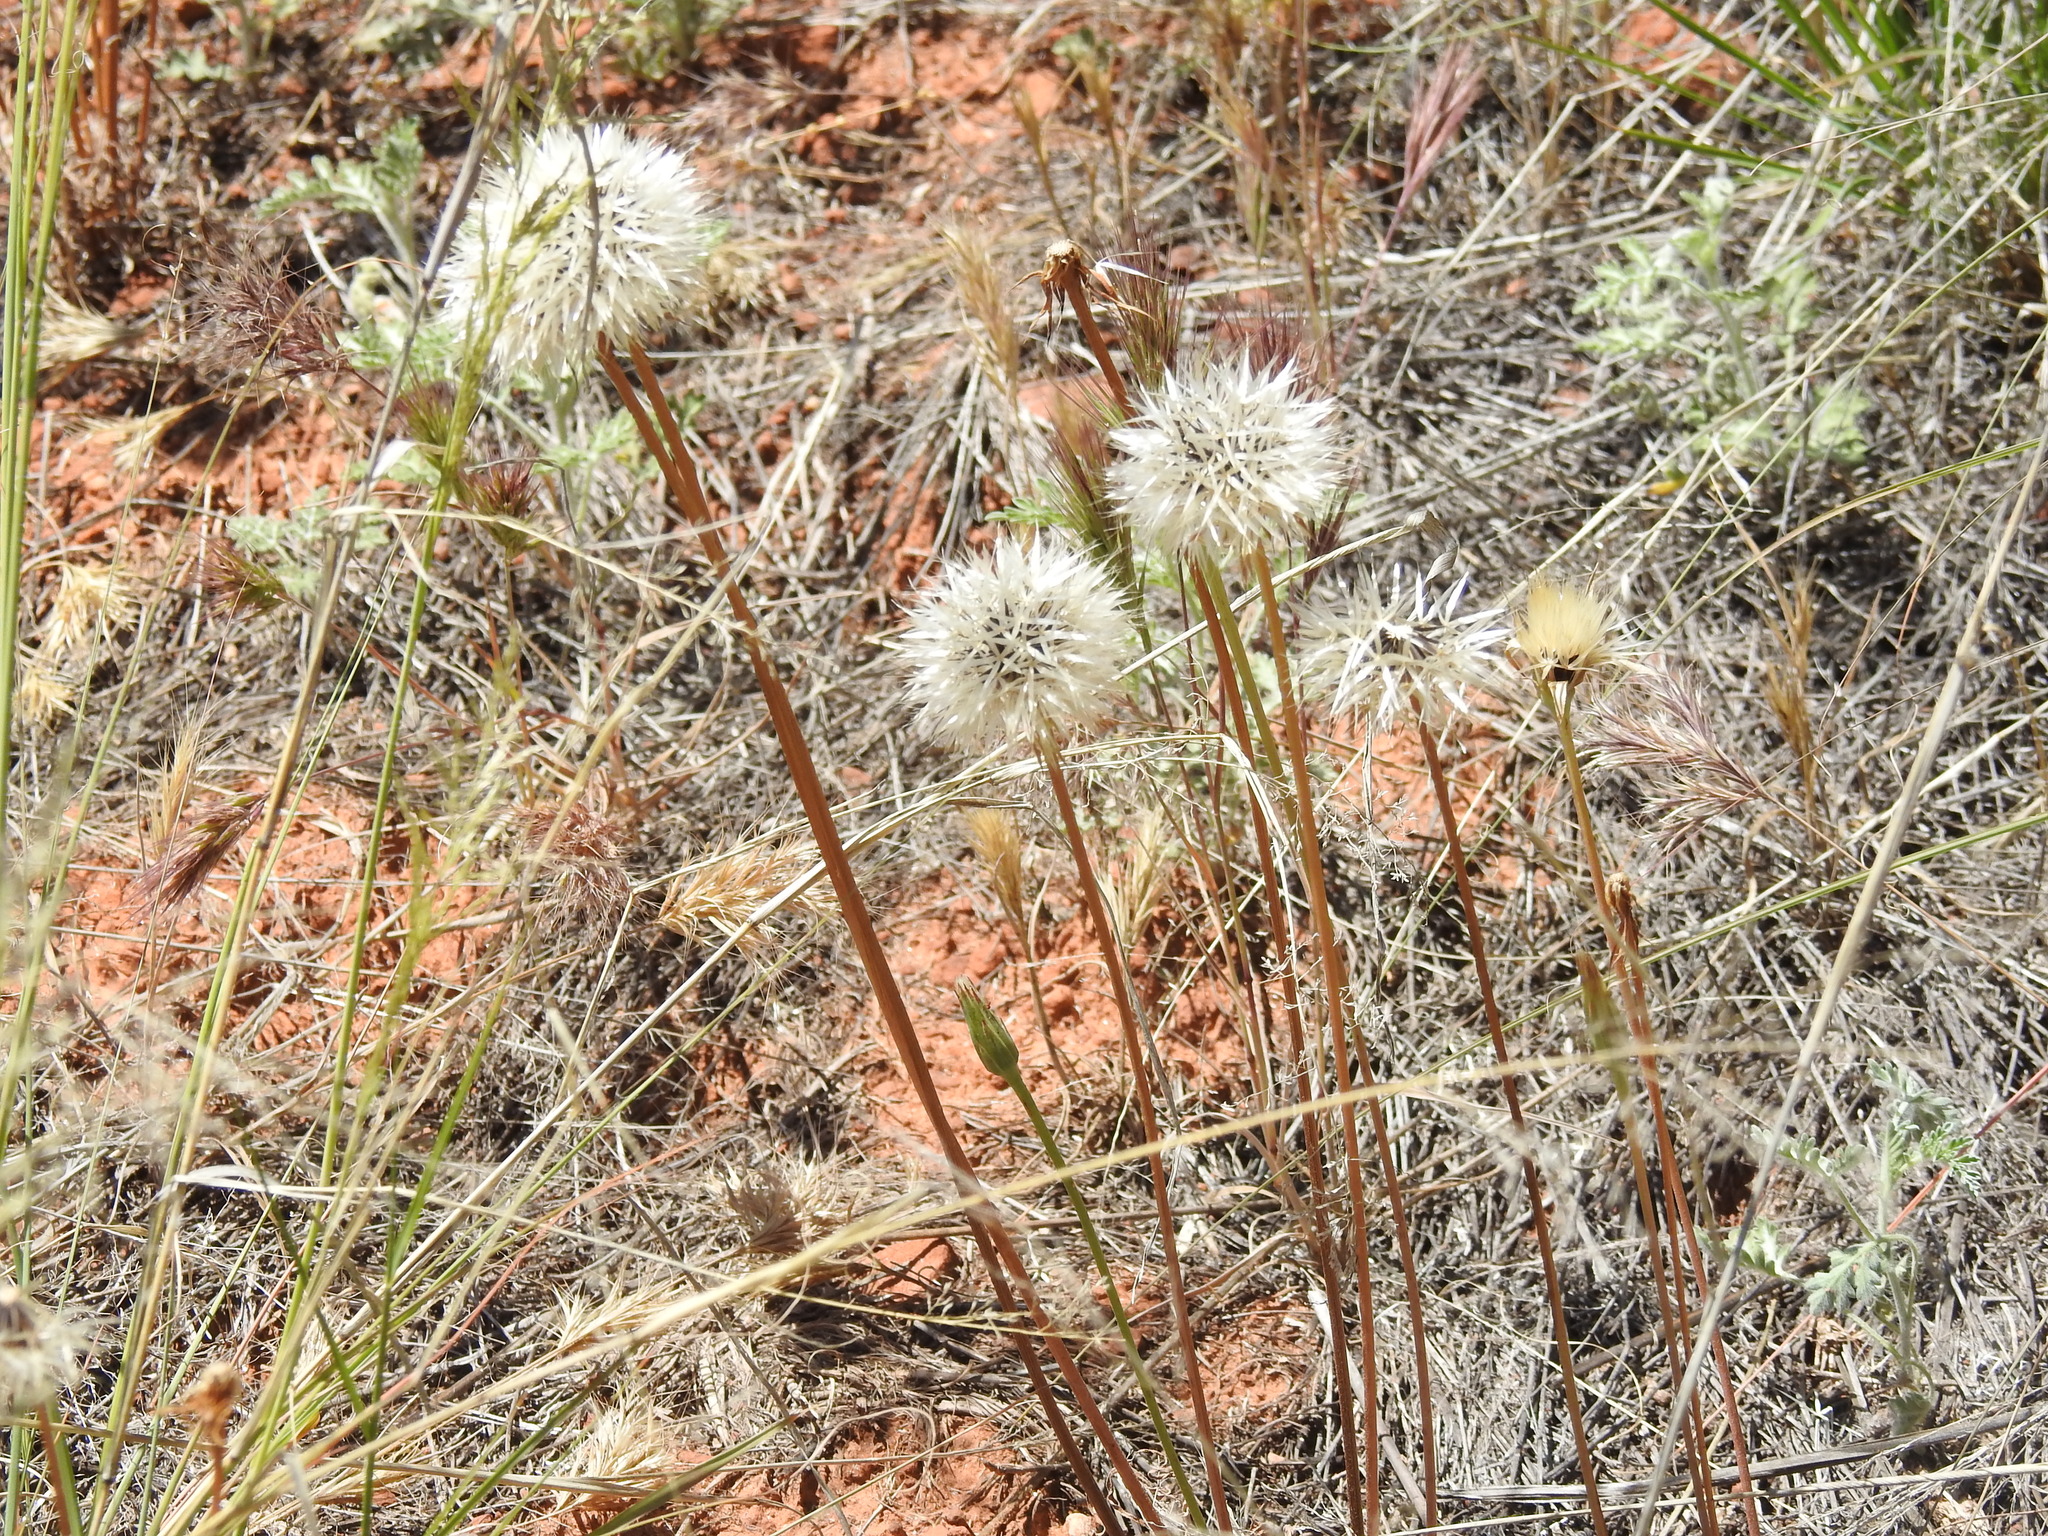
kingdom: Plantae
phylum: Tracheophyta
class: Magnoliopsida
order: Asterales
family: Asteraceae
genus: Microseris
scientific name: Microseris lindleyi
